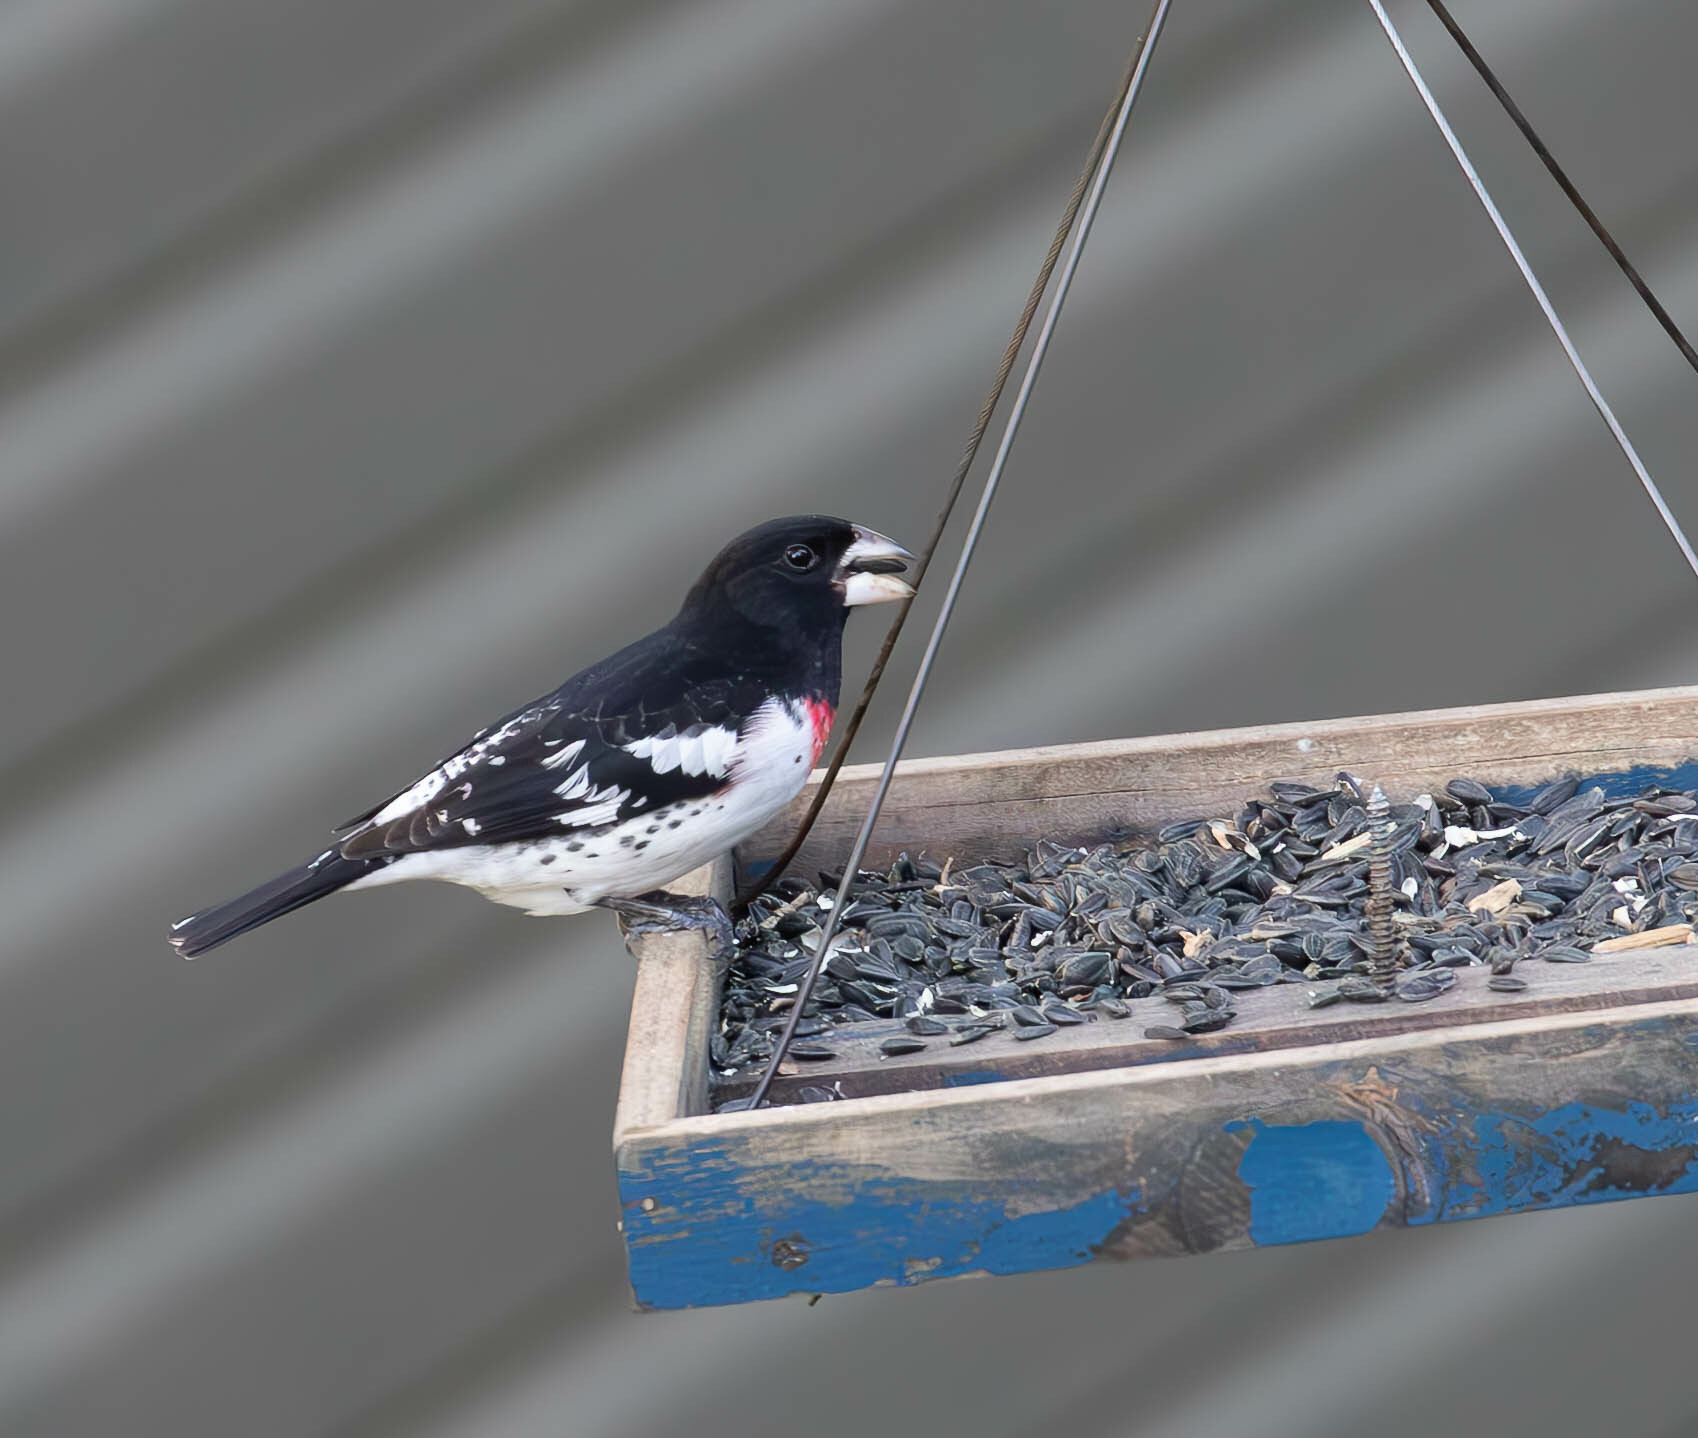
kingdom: Animalia
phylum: Chordata
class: Aves
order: Passeriformes
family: Cardinalidae
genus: Pheucticus
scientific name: Pheucticus ludovicianus
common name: Rose-breasted grosbeak
